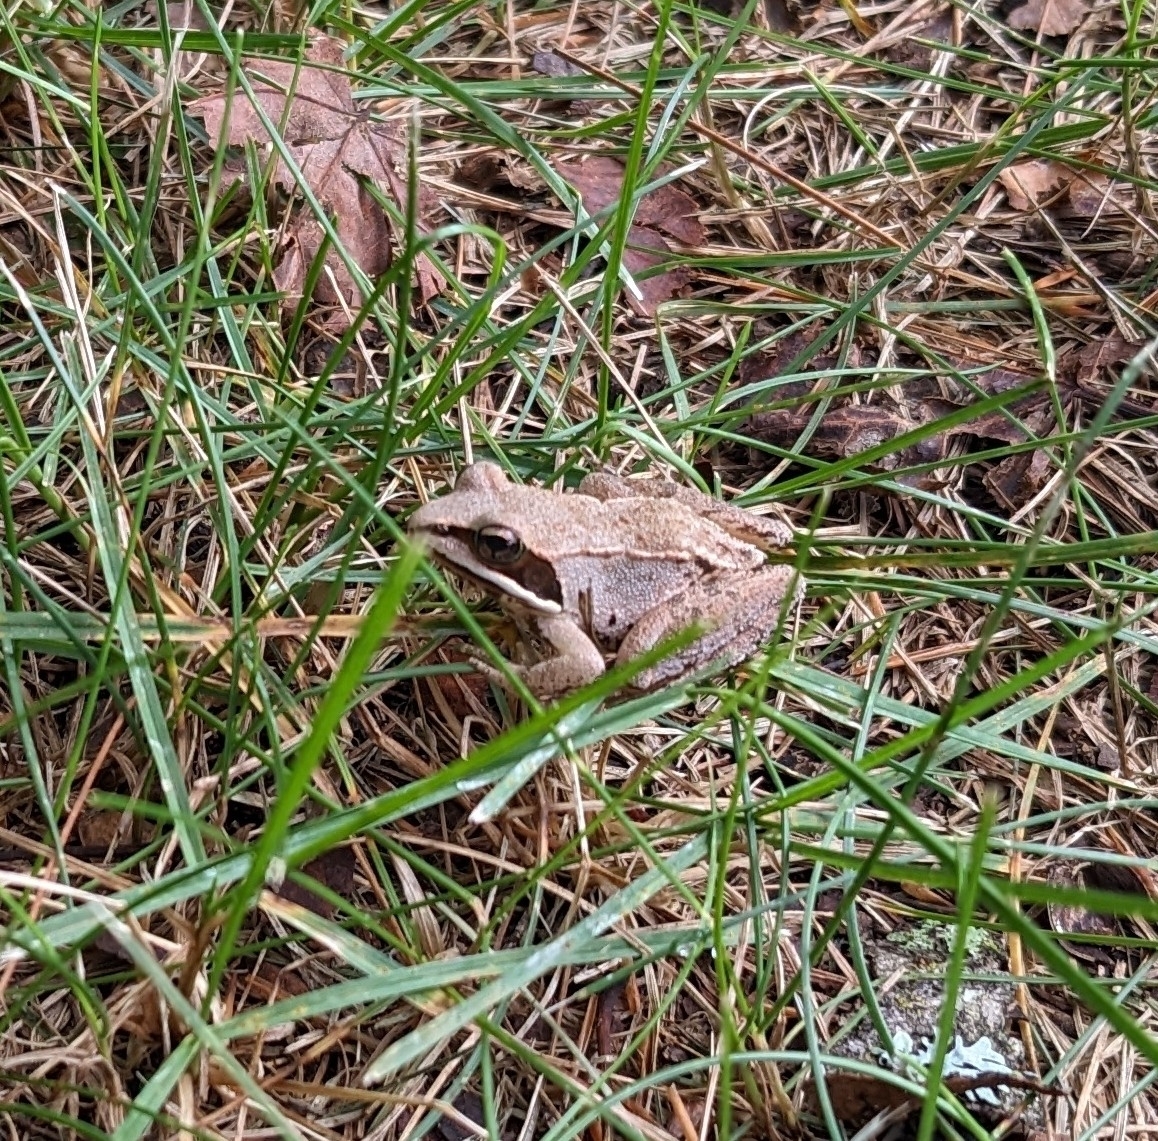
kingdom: Animalia
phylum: Chordata
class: Amphibia
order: Anura
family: Ranidae
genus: Lithobates
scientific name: Lithobates sylvaticus
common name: Wood frog
